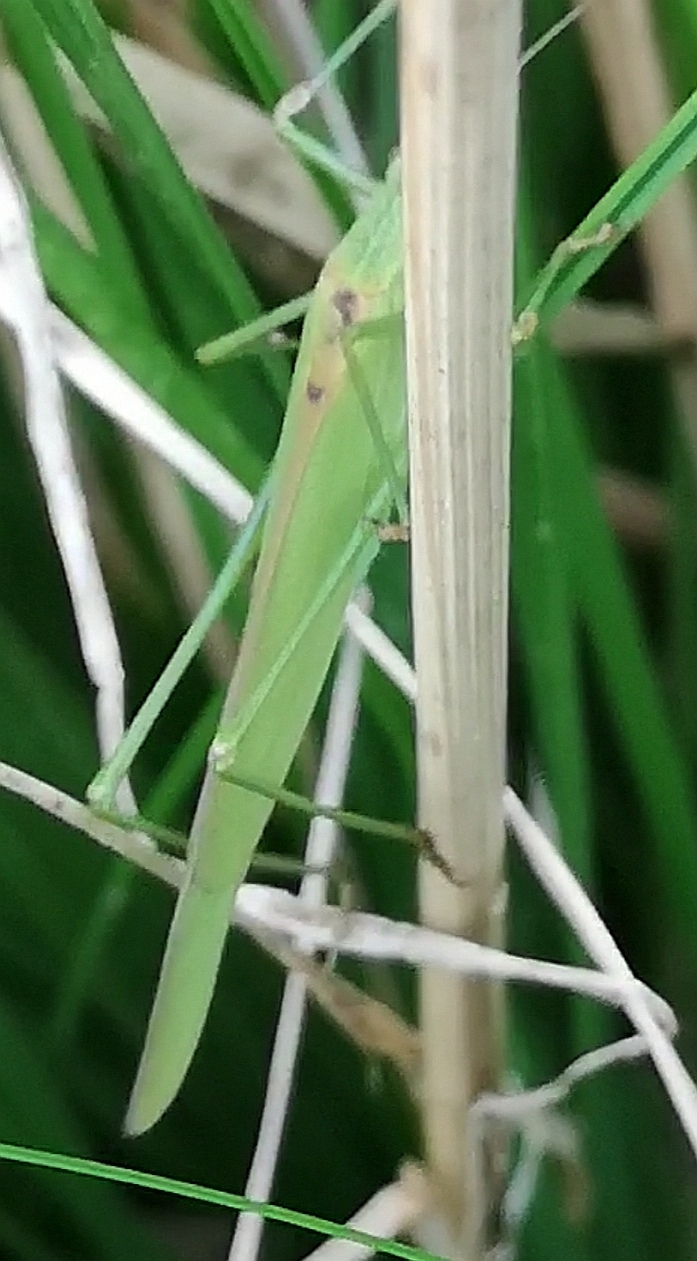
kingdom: Animalia
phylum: Arthropoda
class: Insecta
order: Orthoptera
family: Tettigoniidae
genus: Phaneroptera
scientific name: Phaneroptera falcata
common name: Sickle-bearing bush-cricket
